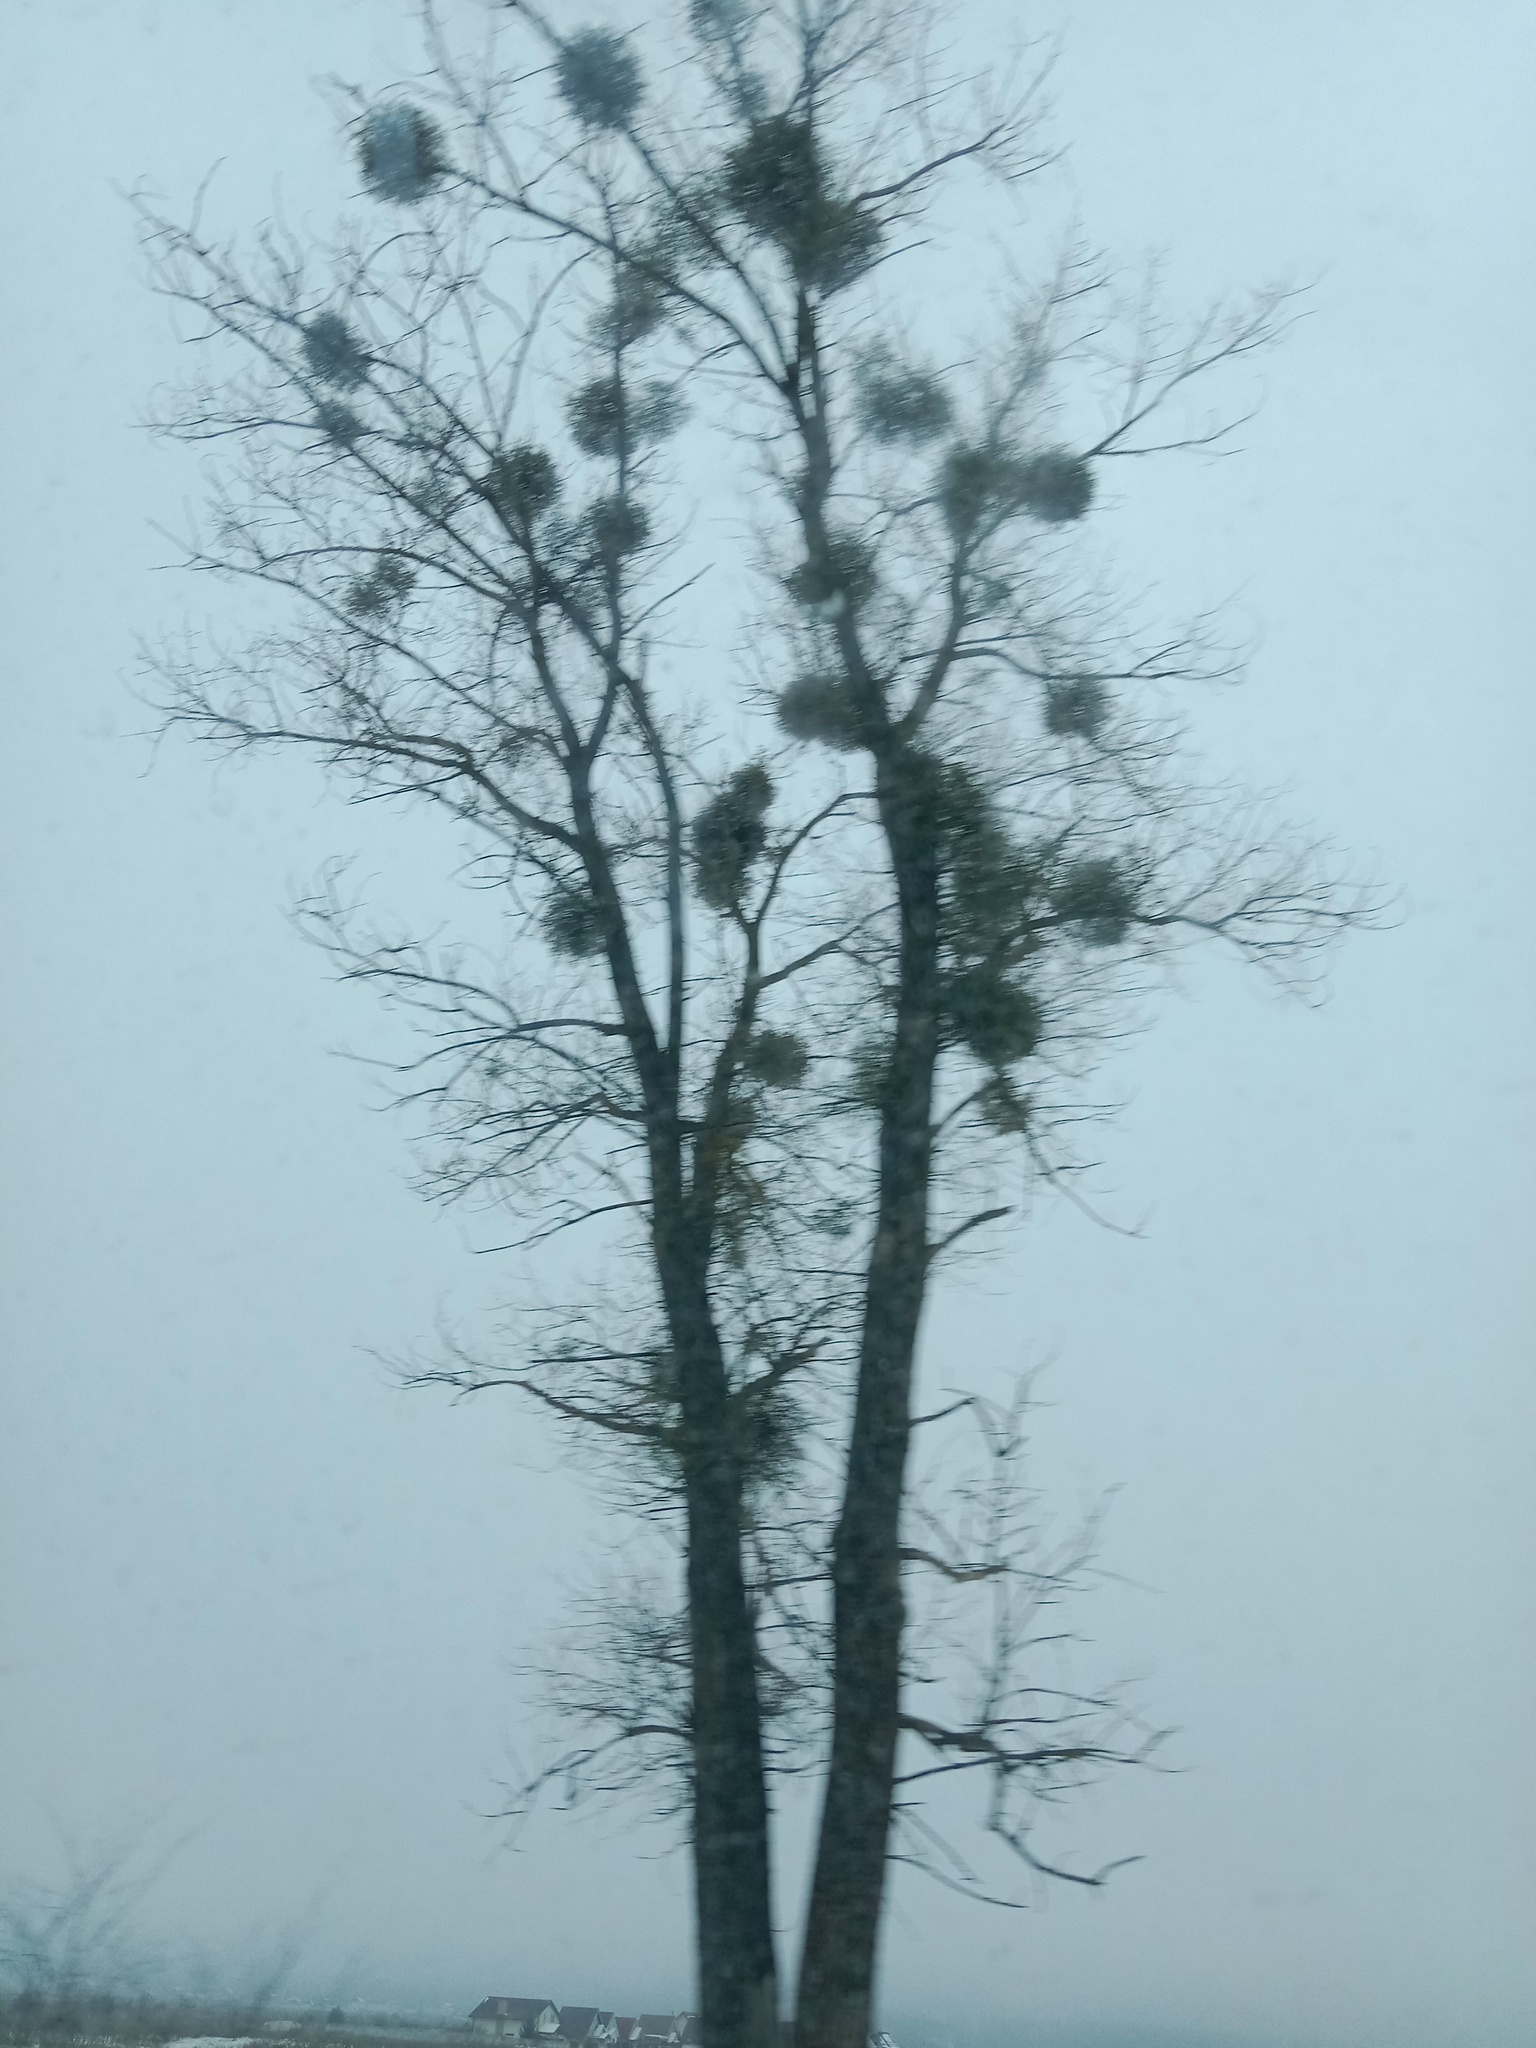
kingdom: Plantae
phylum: Tracheophyta
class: Magnoliopsida
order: Santalales
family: Viscaceae
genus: Viscum
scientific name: Viscum album
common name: Mistletoe
